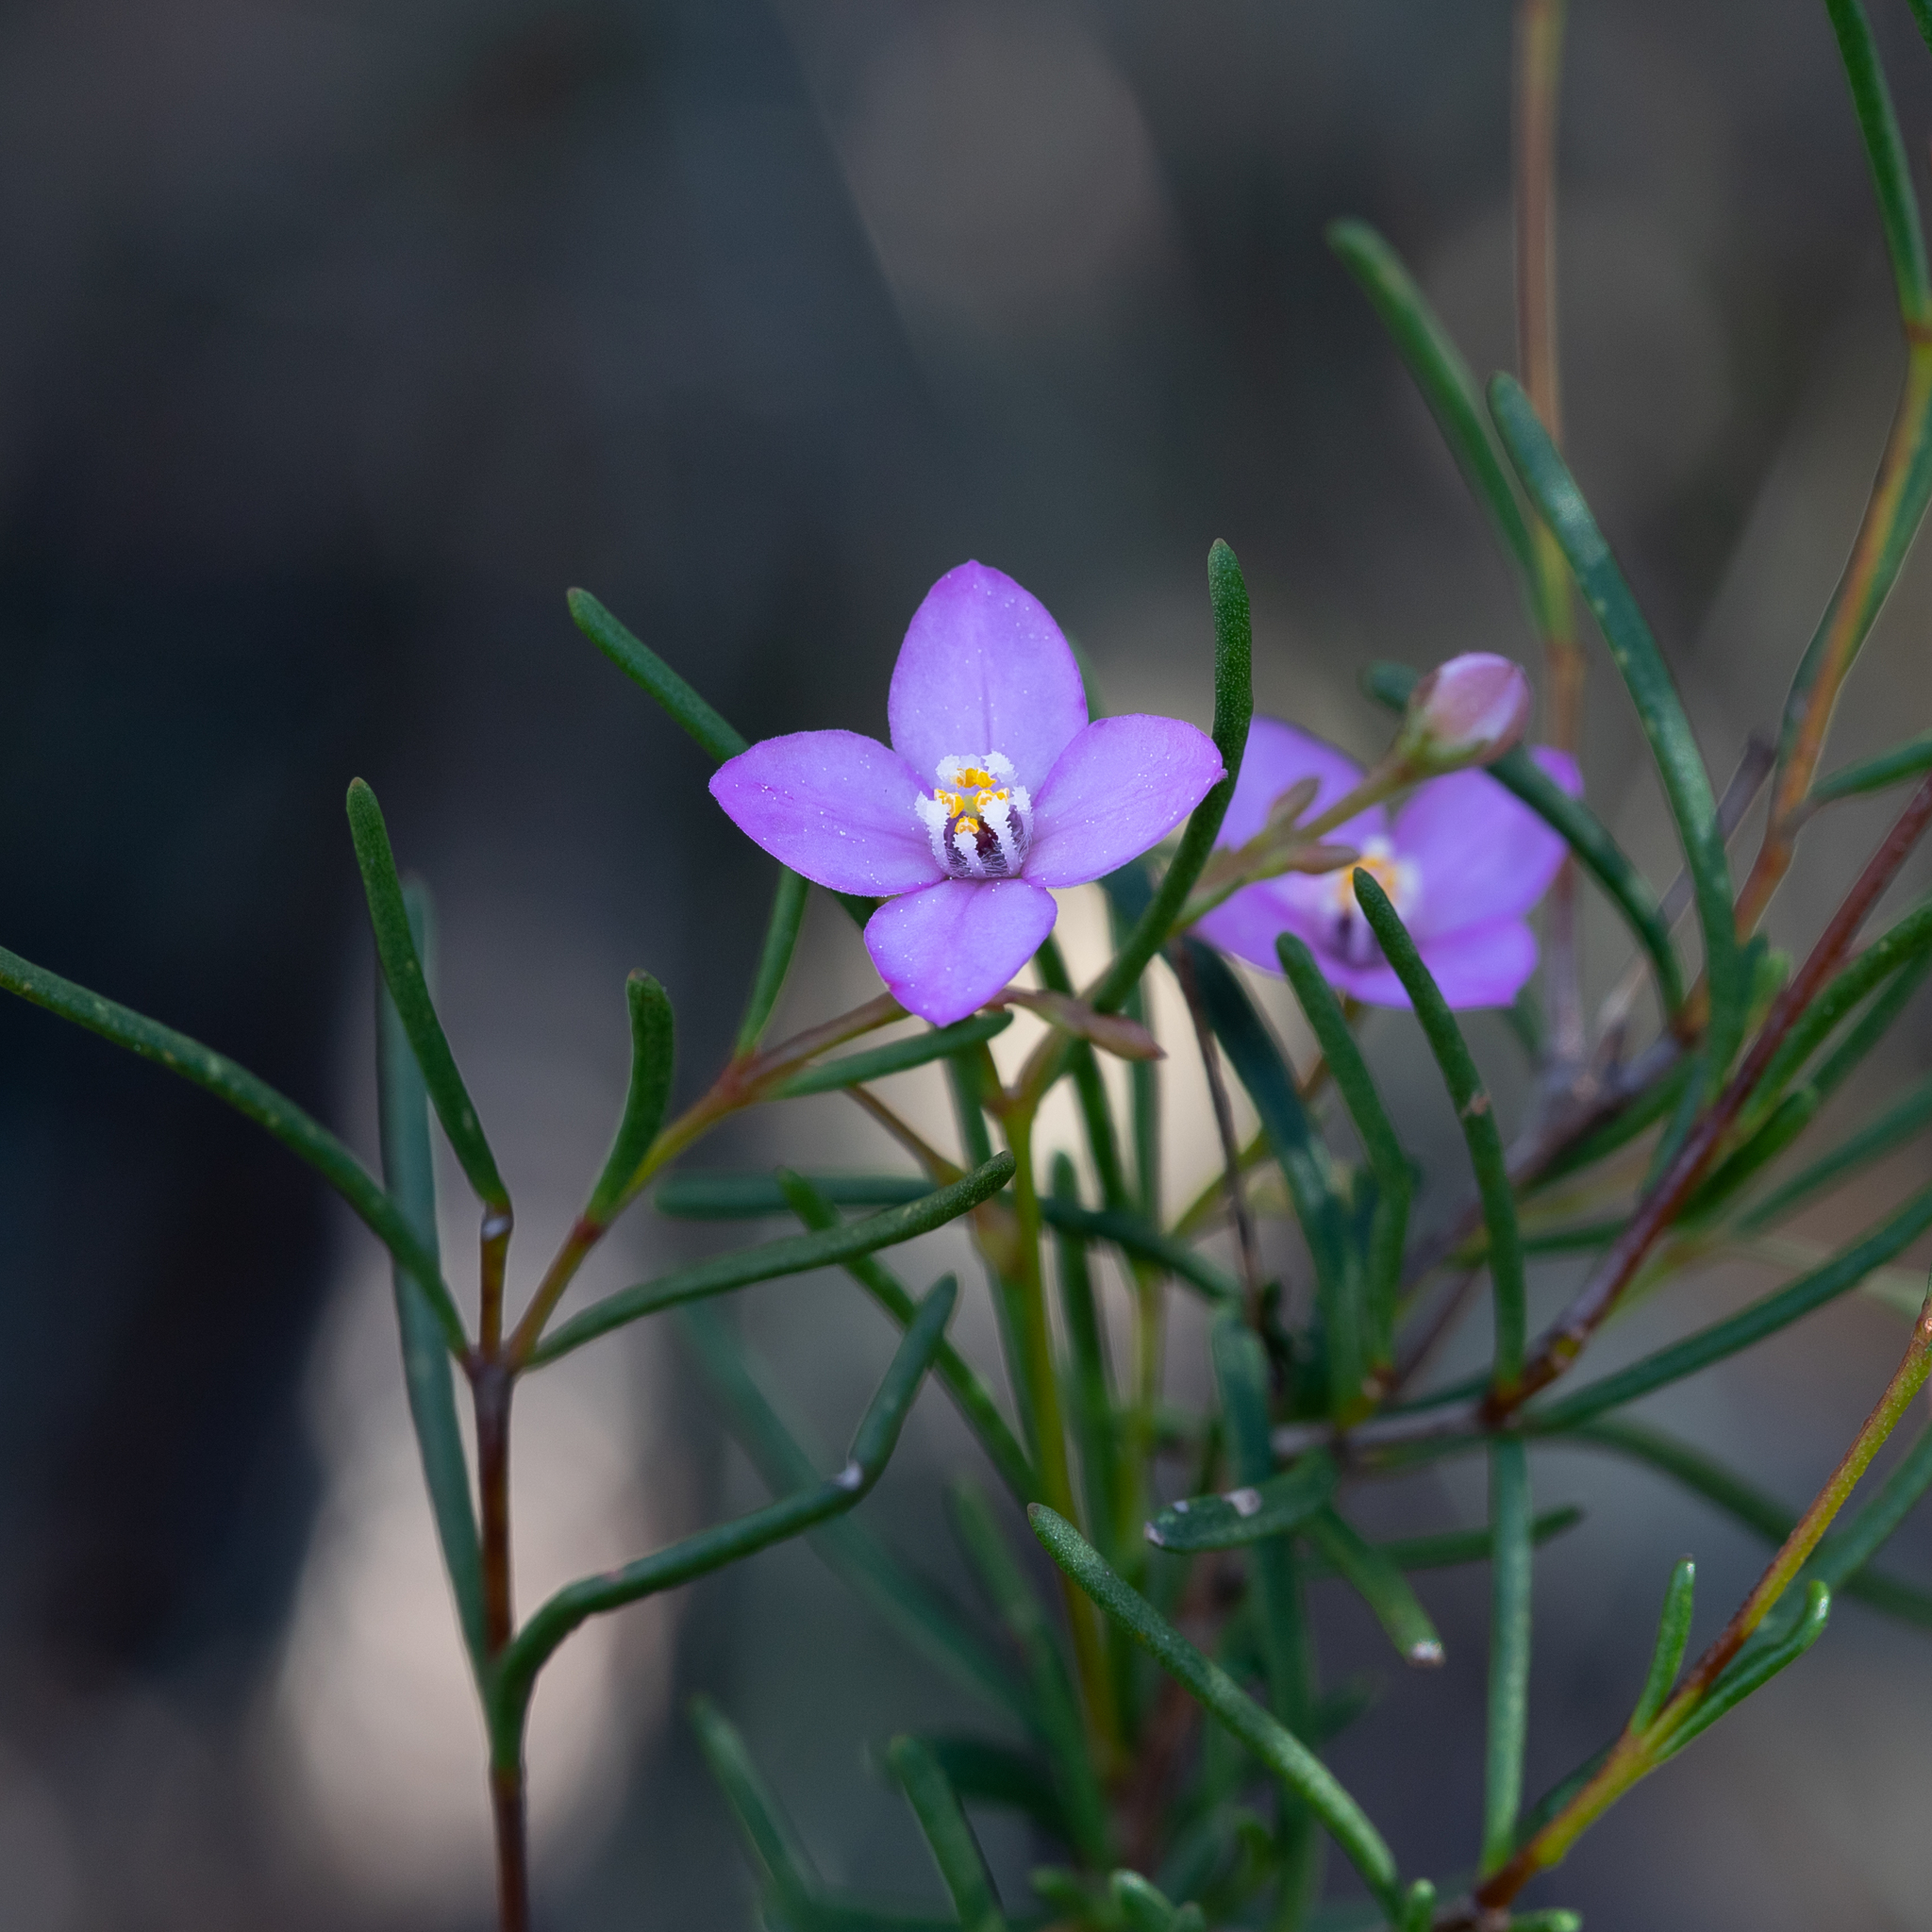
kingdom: Plantae
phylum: Tracheophyta
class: Magnoliopsida
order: Sapindales
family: Rutaceae
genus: Boronia
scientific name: Boronia filifolia
